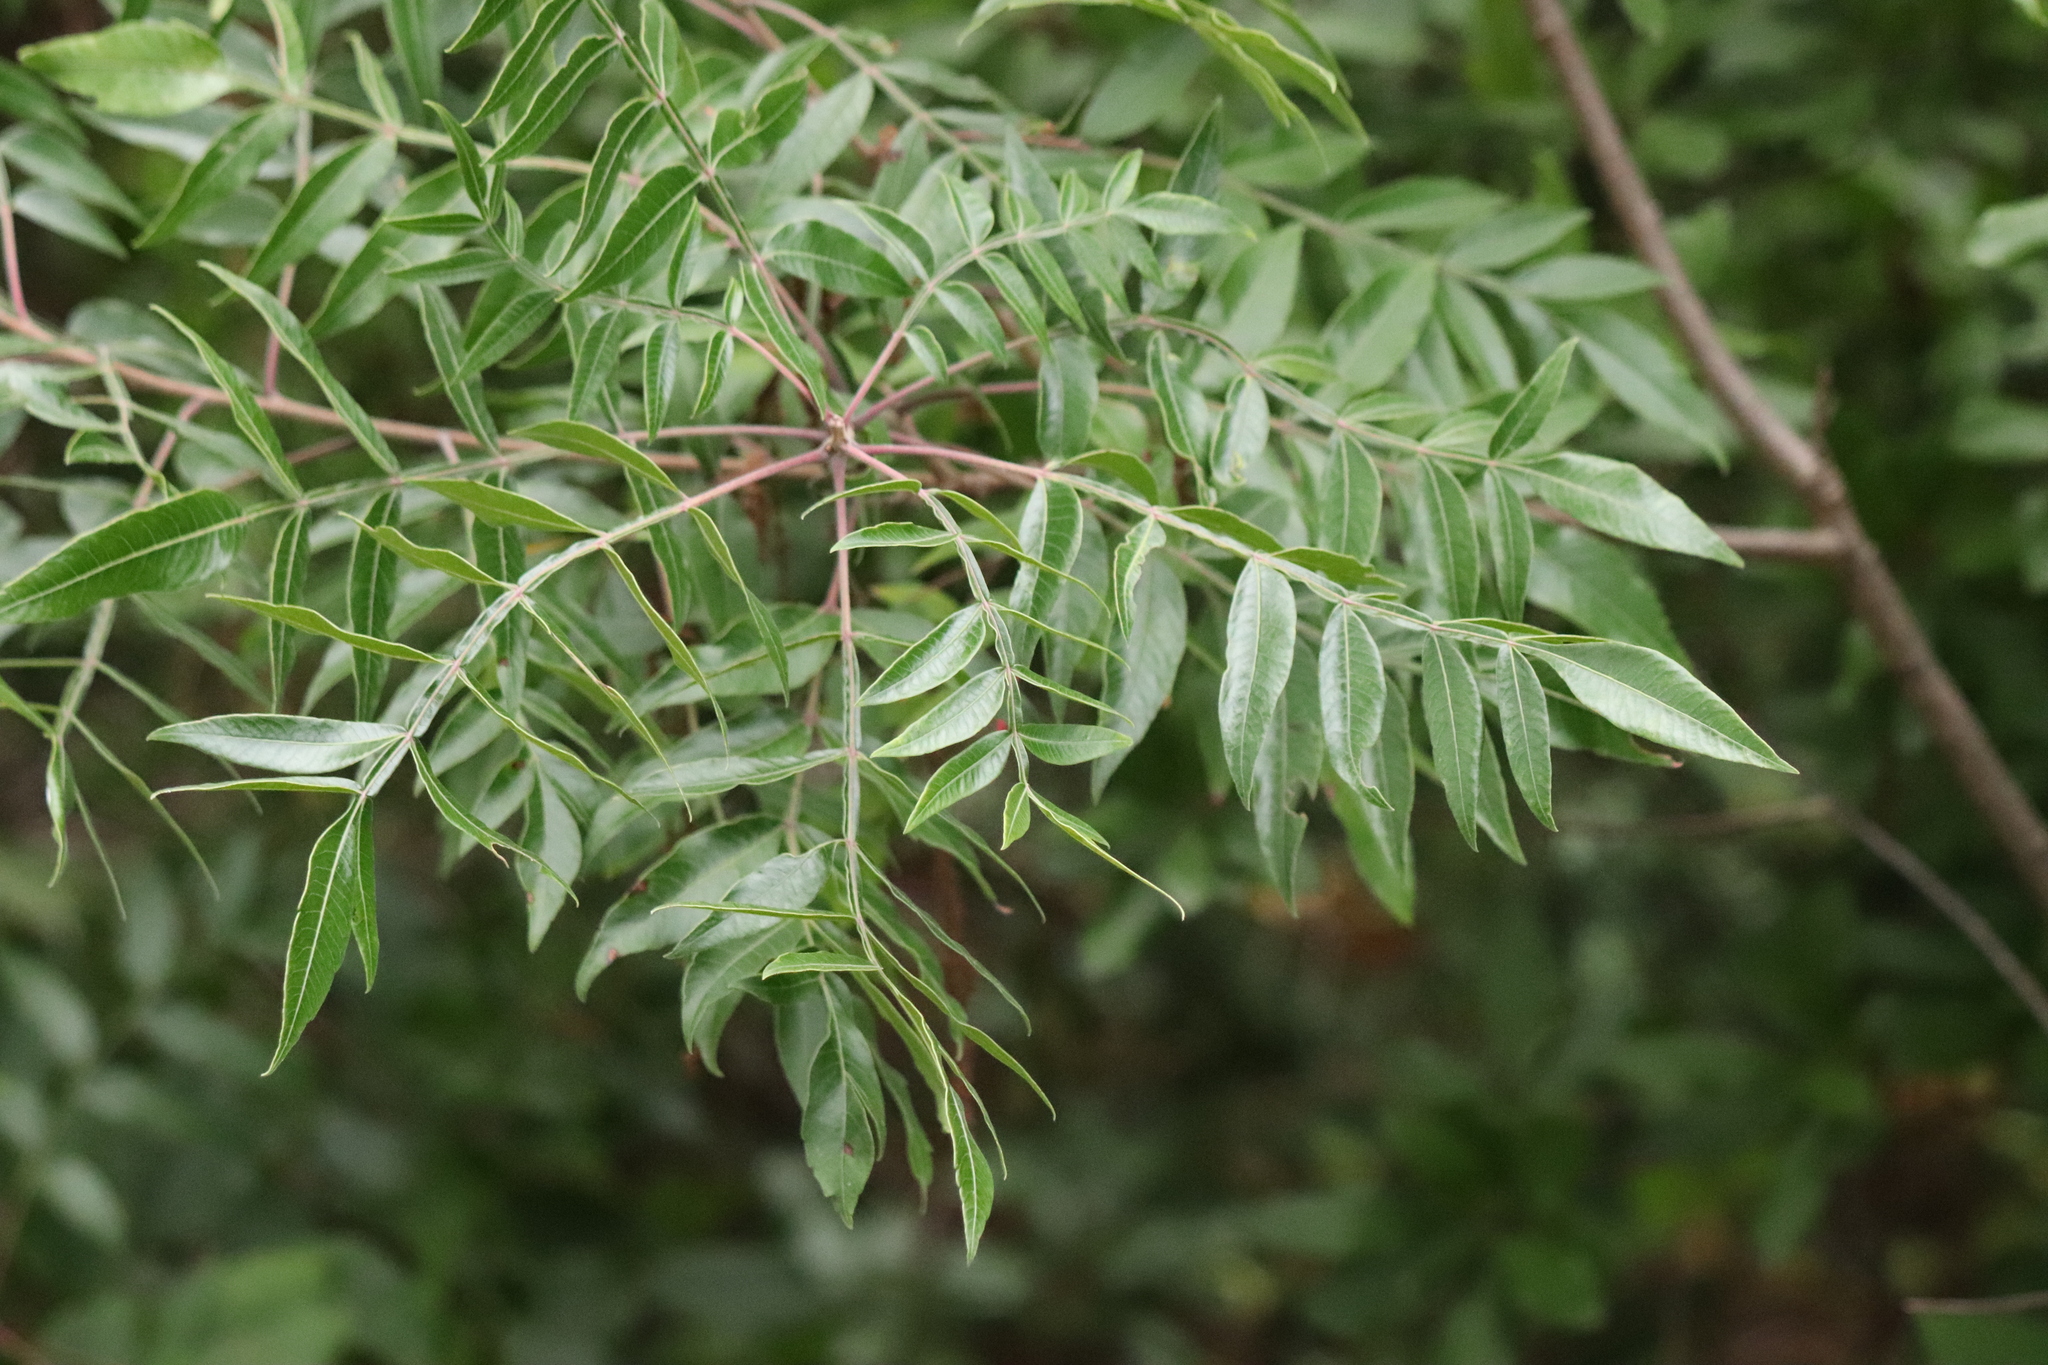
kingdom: Plantae
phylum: Tracheophyta
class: Magnoliopsida
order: Sapindales
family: Anacardiaceae
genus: Rhus
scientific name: Rhus copallina
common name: Shining sumac
